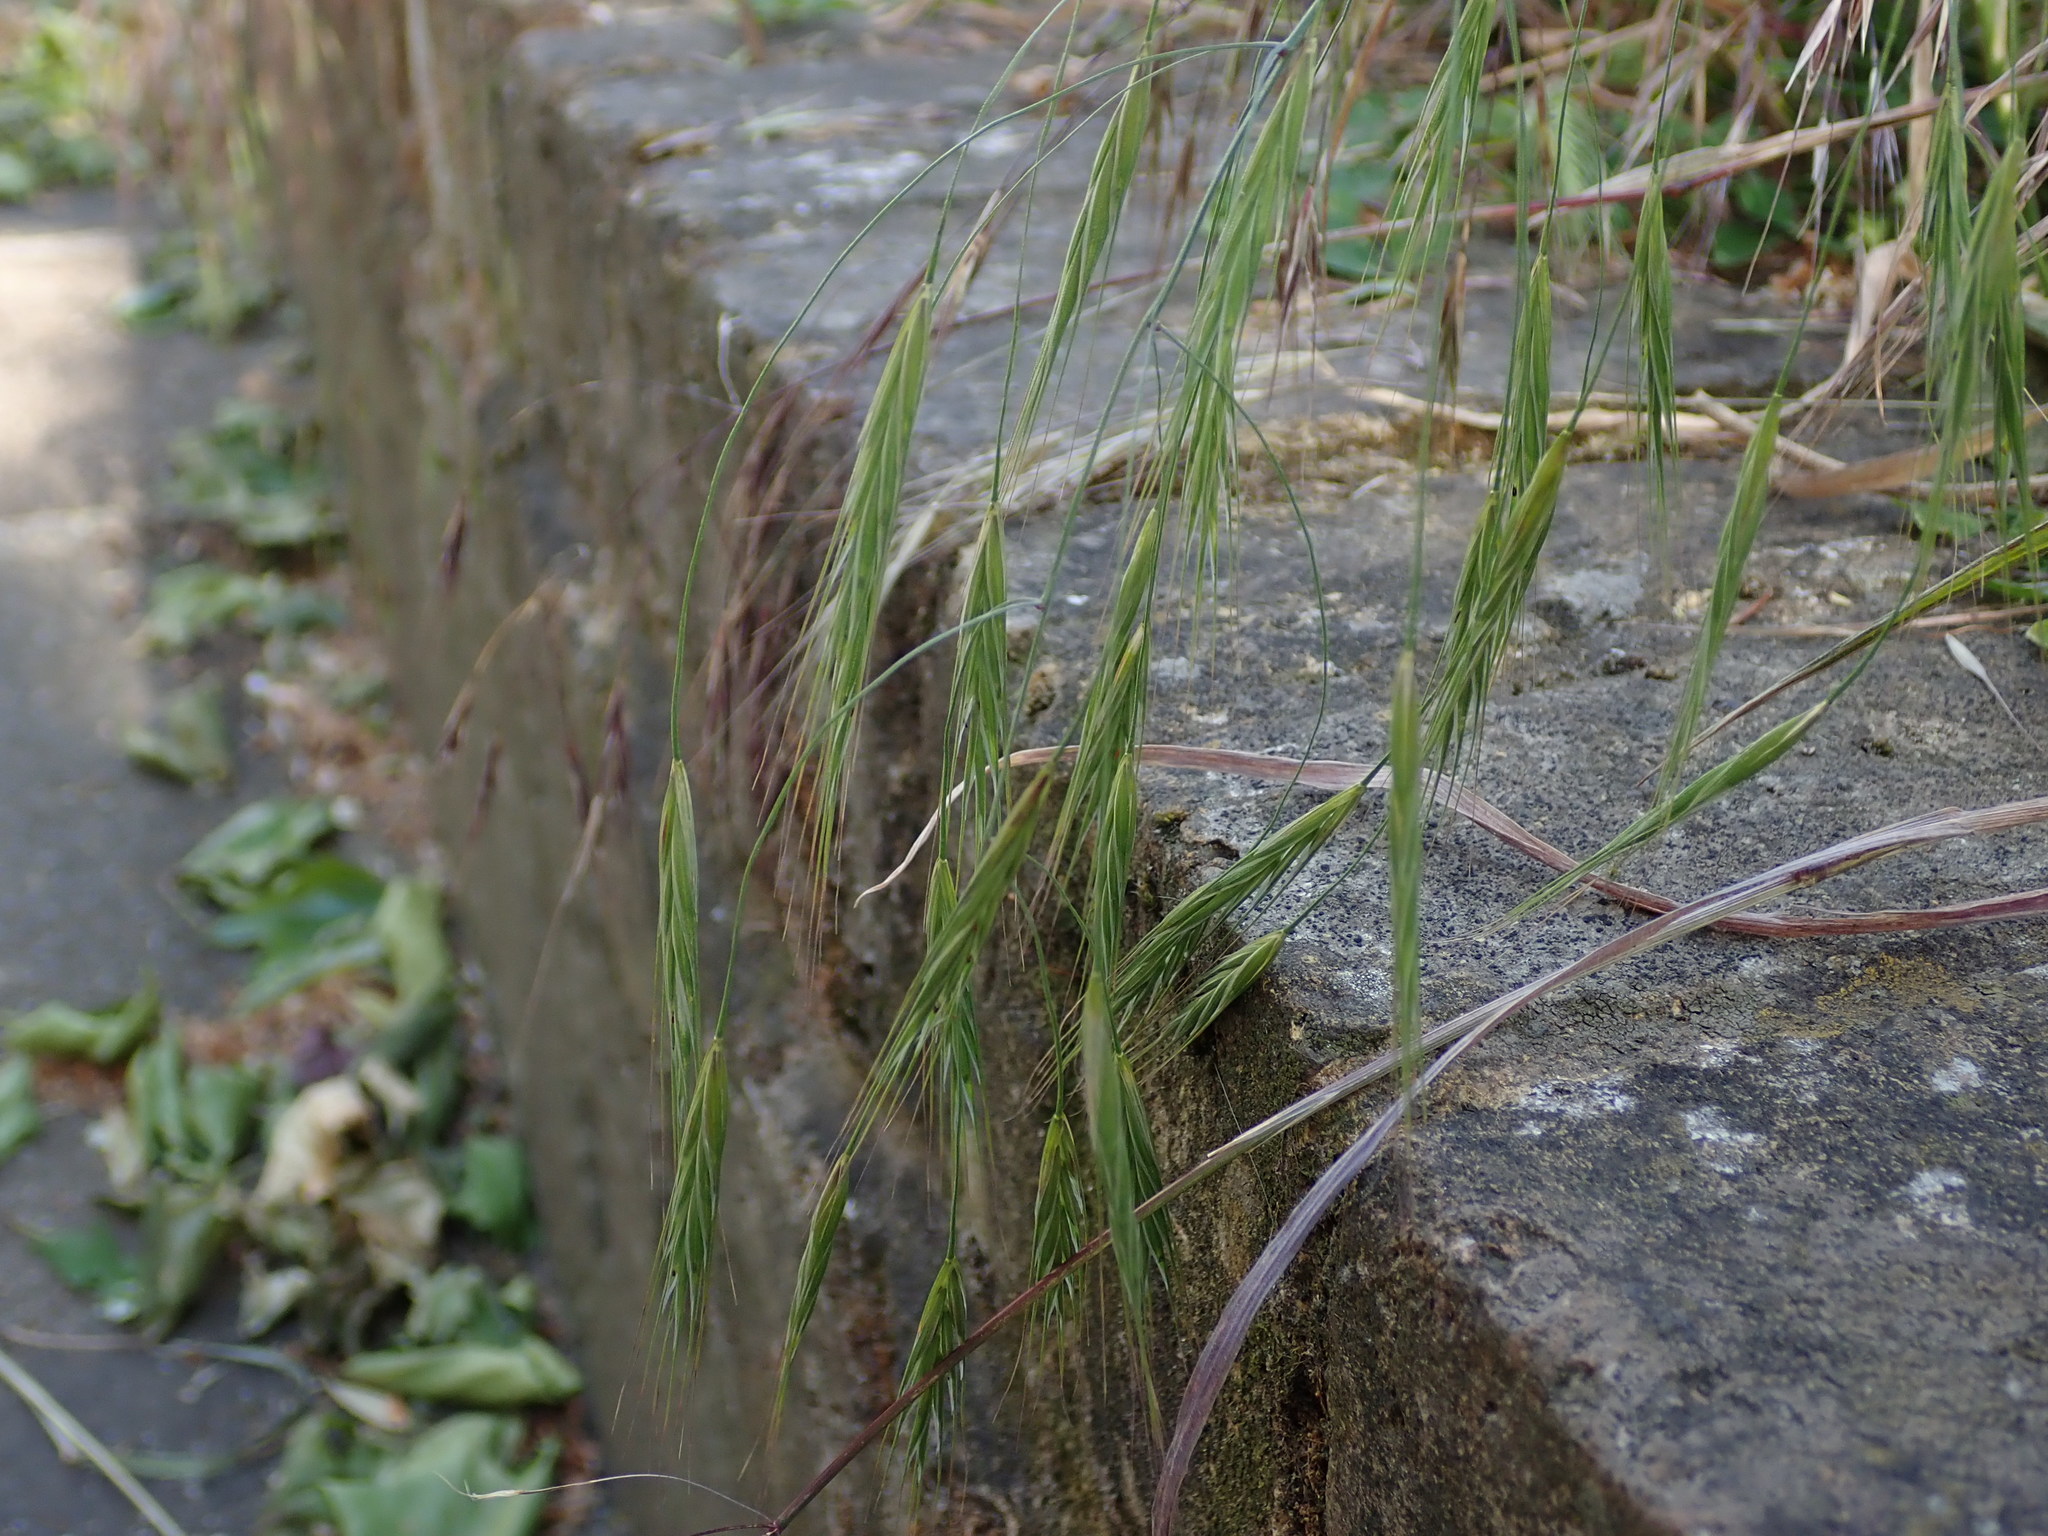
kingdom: Plantae
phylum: Tracheophyta
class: Liliopsida
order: Poales
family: Poaceae
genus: Bromus
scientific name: Bromus sterilis
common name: Poverty brome
